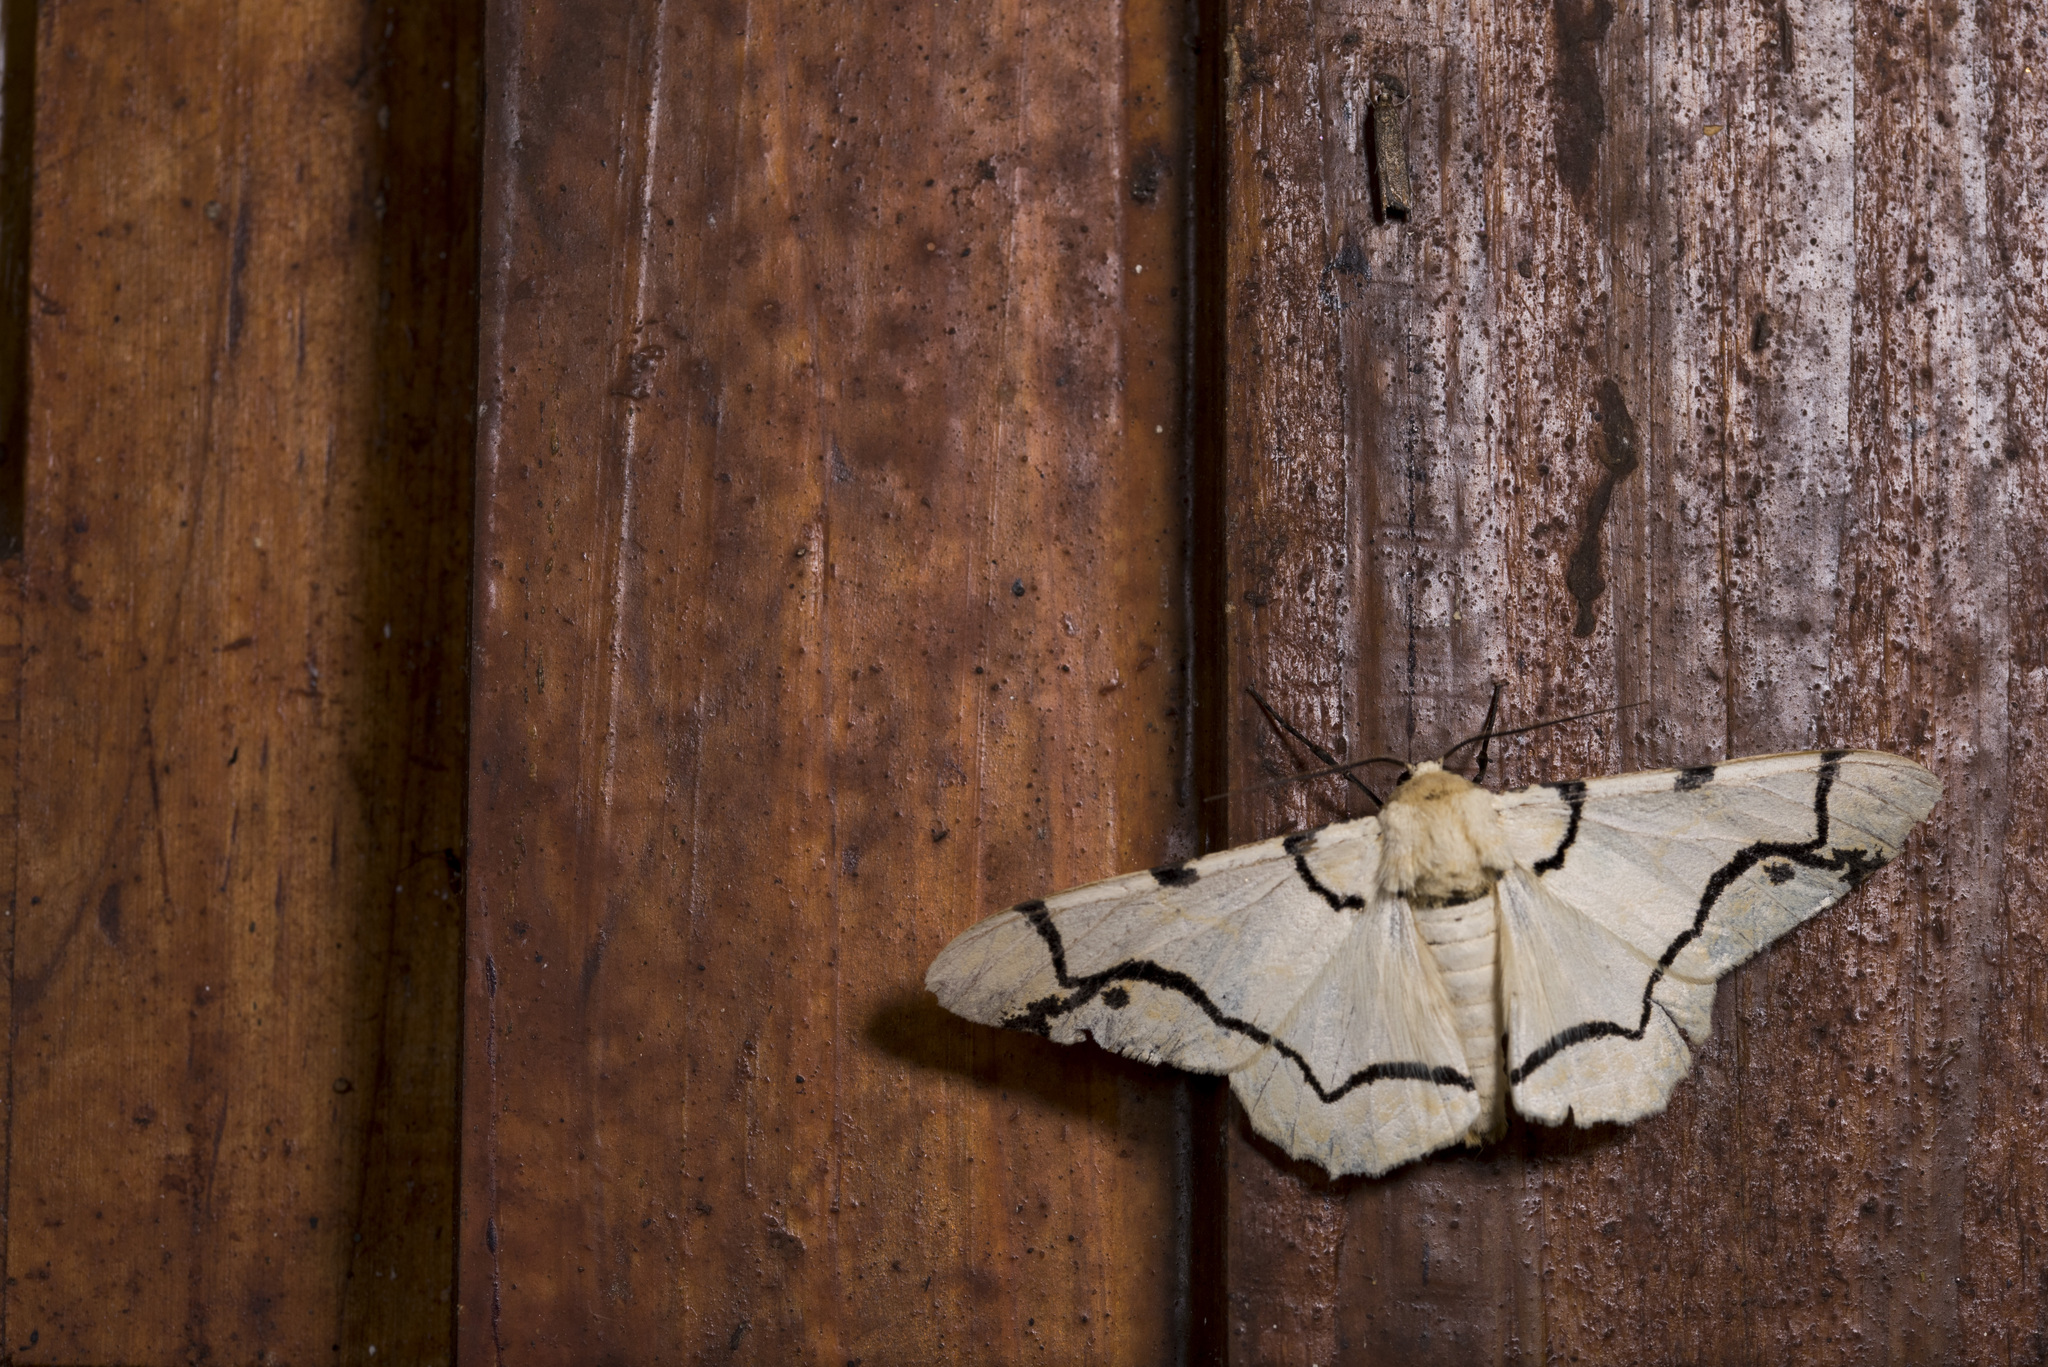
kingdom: Animalia
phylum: Arthropoda
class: Insecta
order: Lepidoptera
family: Geometridae
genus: Biston
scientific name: Biston perclara
